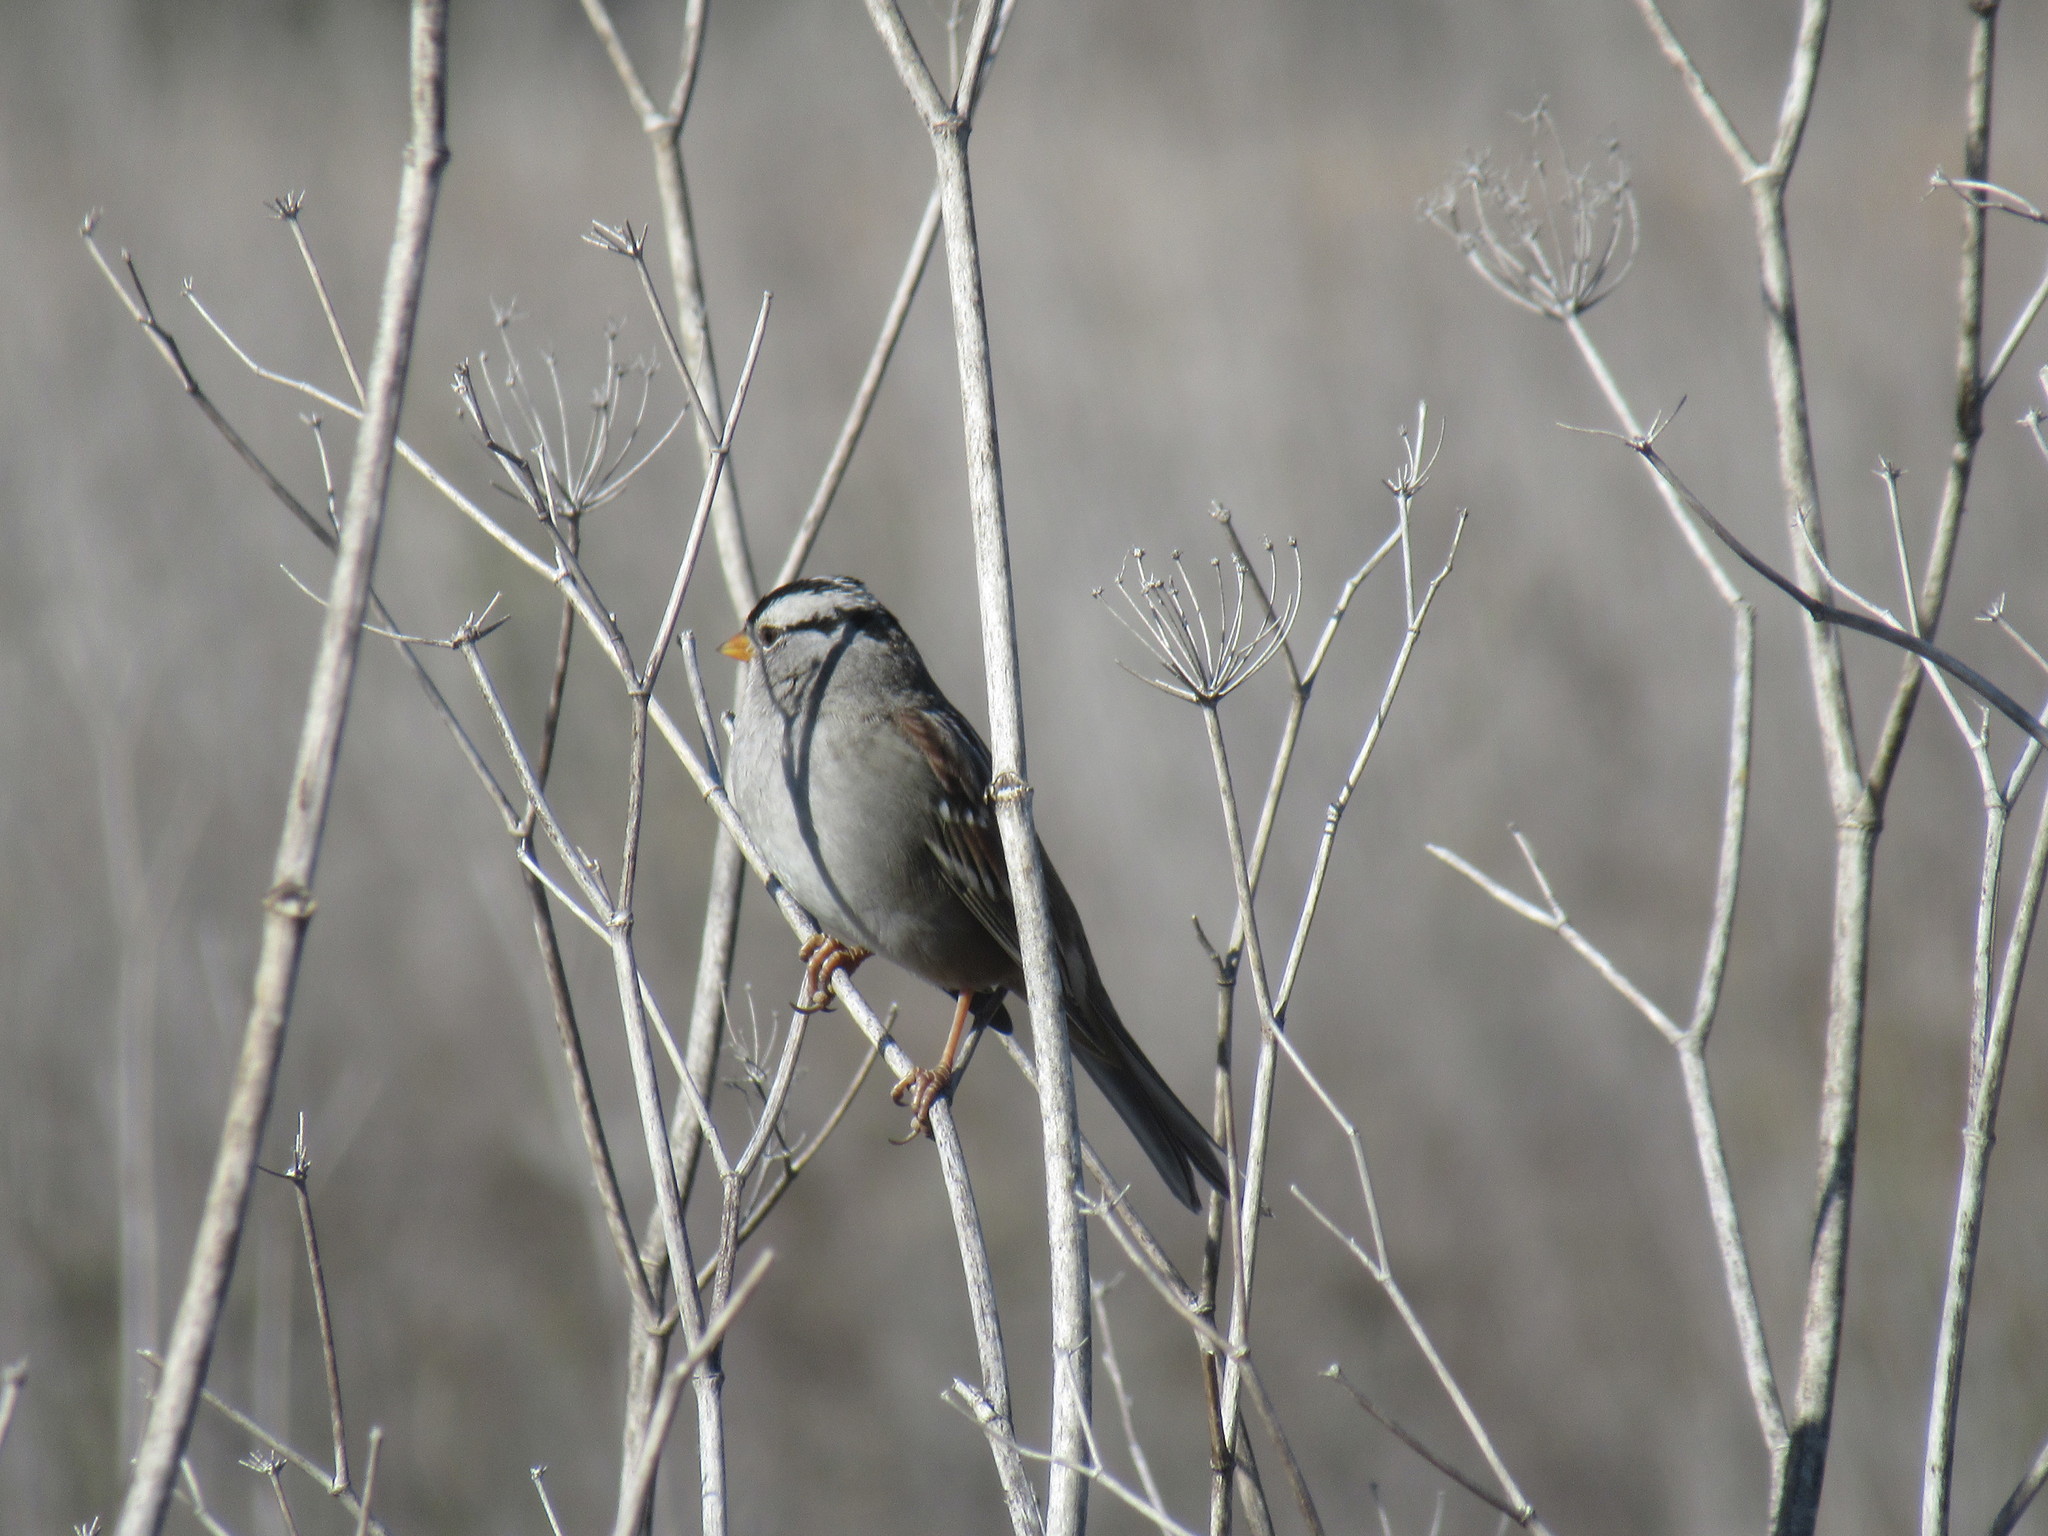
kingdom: Animalia
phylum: Chordata
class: Aves
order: Passeriformes
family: Passerellidae
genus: Zonotrichia
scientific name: Zonotrichia leucophrys
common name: White-crowned sparrow
